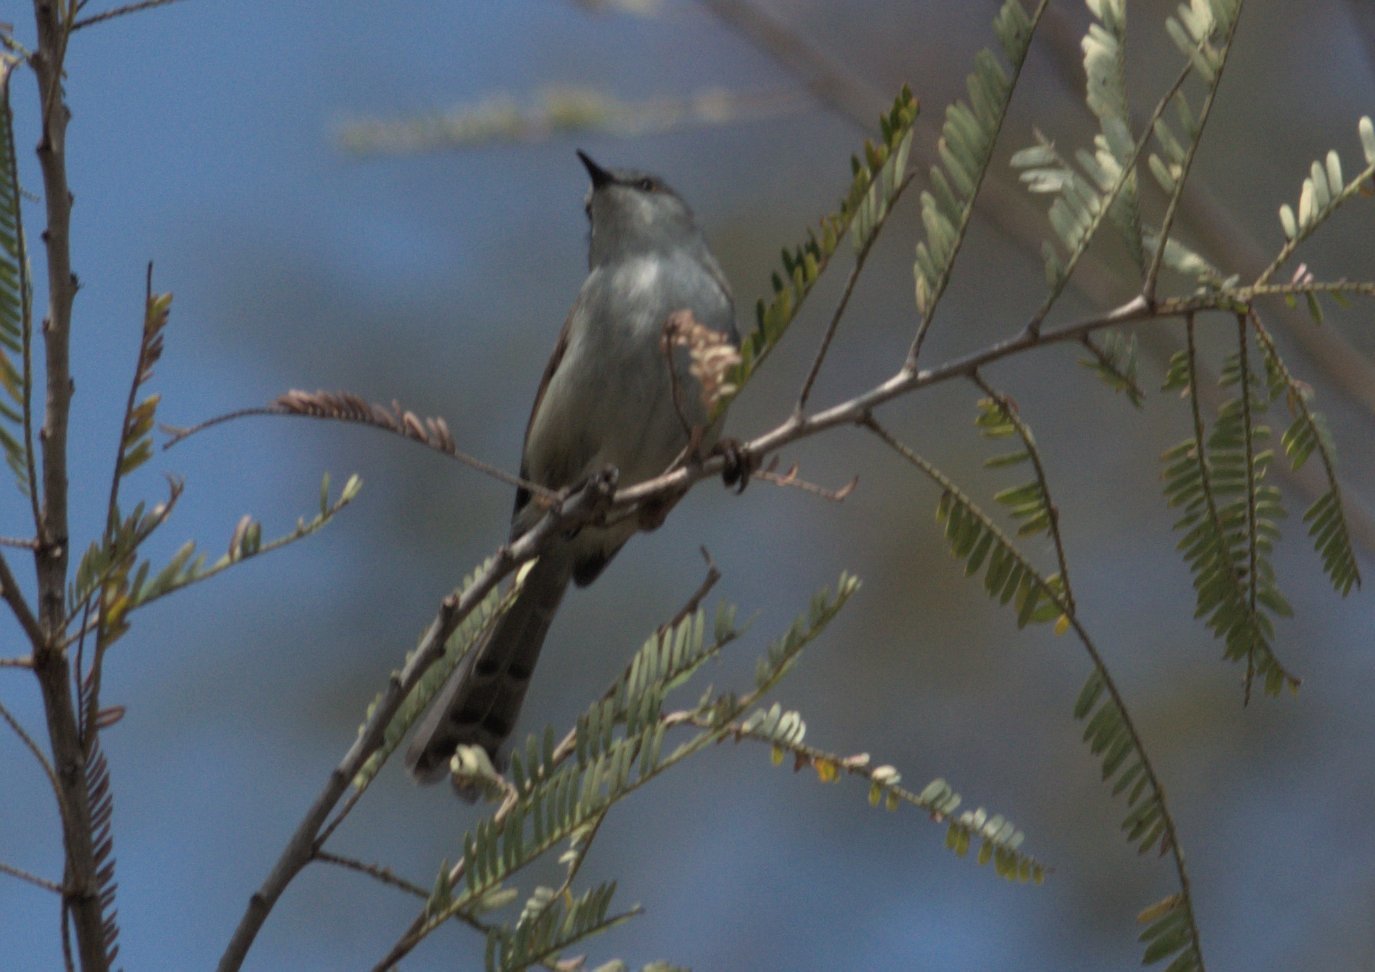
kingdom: Animalia
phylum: Chordata
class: Aves
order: Passeriformes
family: Cisticolidae
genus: Prinia
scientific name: Prinia hodgsonii
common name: Grey-breasted prinia
